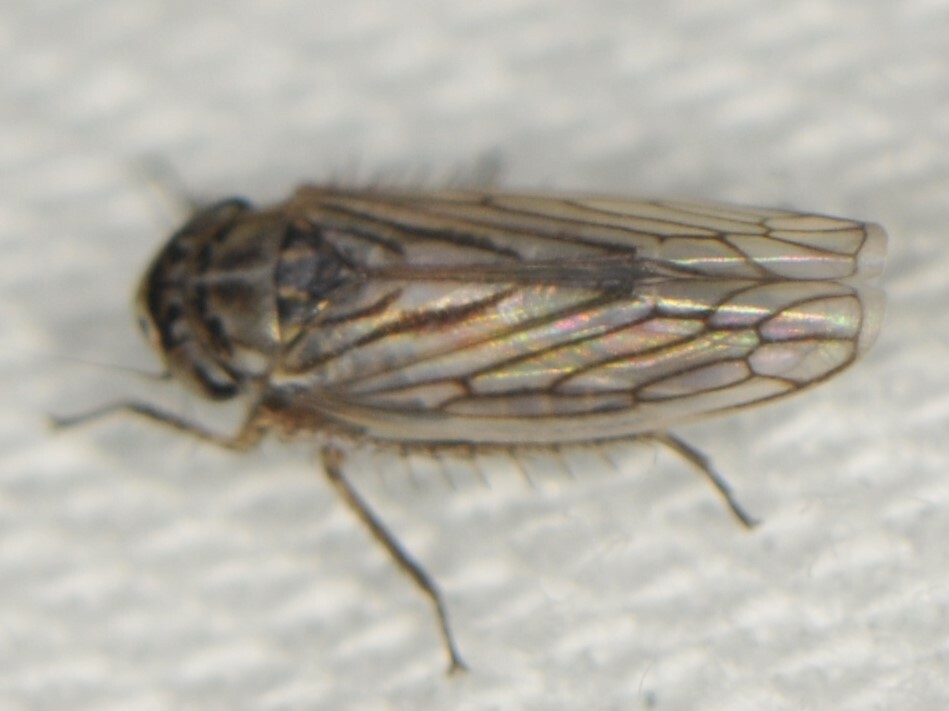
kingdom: Animalia
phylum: Arthropoda
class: Insecta
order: Hemiptera
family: Cicadellidae
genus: Exitianus
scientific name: Exitianus
